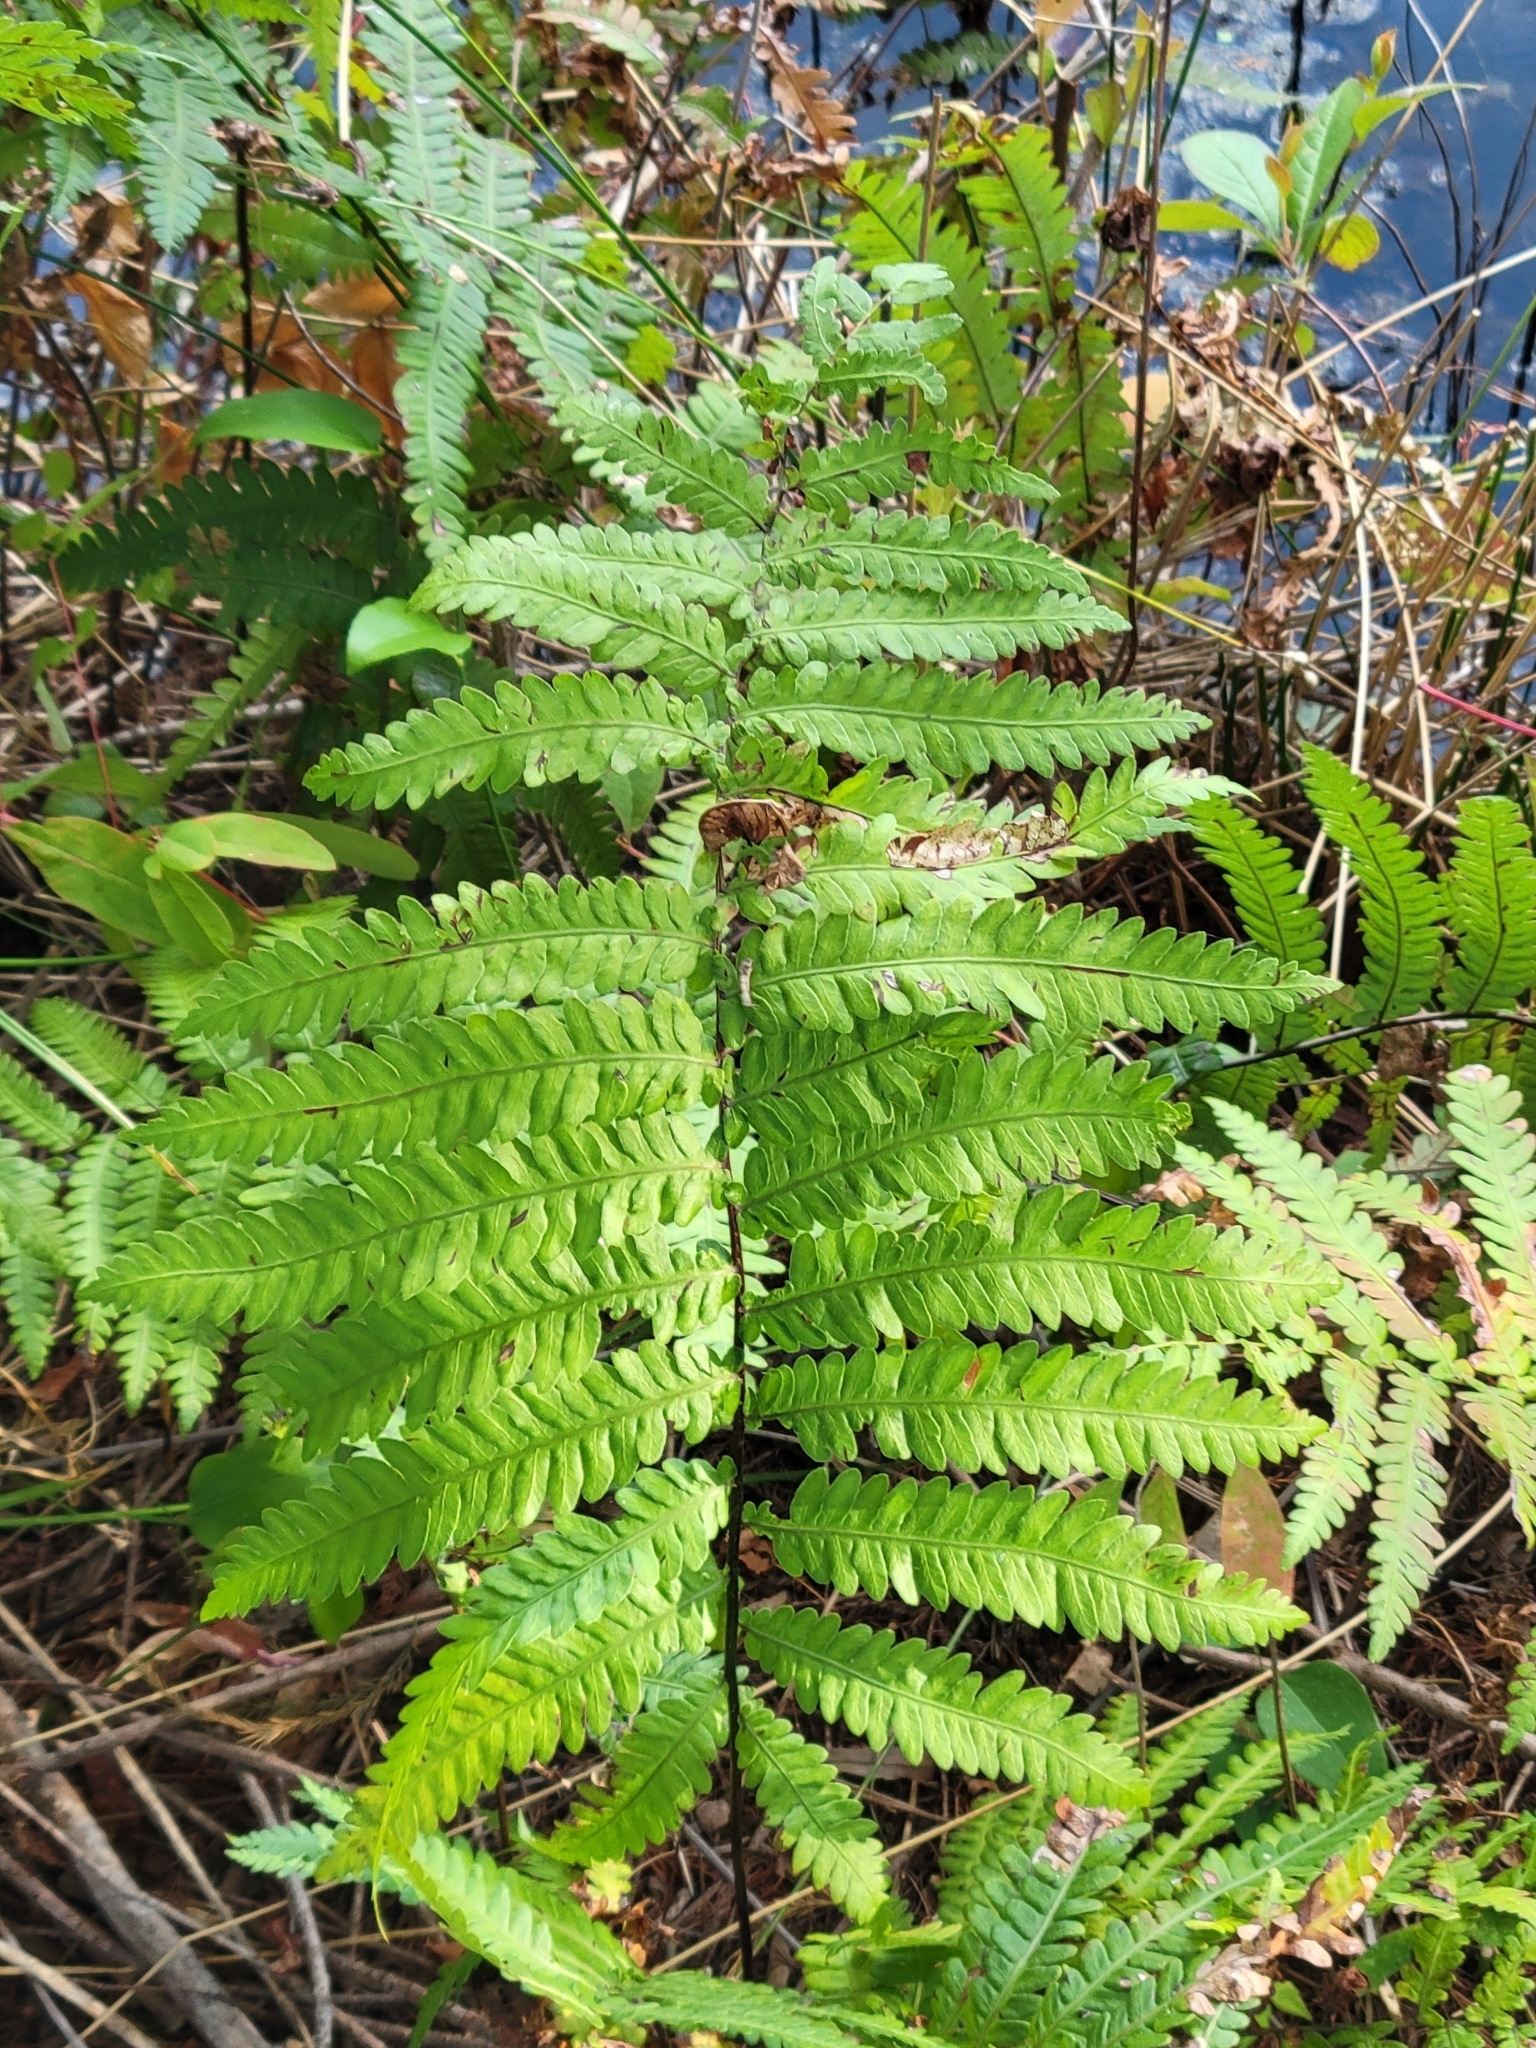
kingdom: Plantae
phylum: Tracheophyta
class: Polypodiopsida
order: Polypodiales
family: Blechnaceae
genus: Anchistea
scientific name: Anchistea virginica
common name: Virginia chain fern
